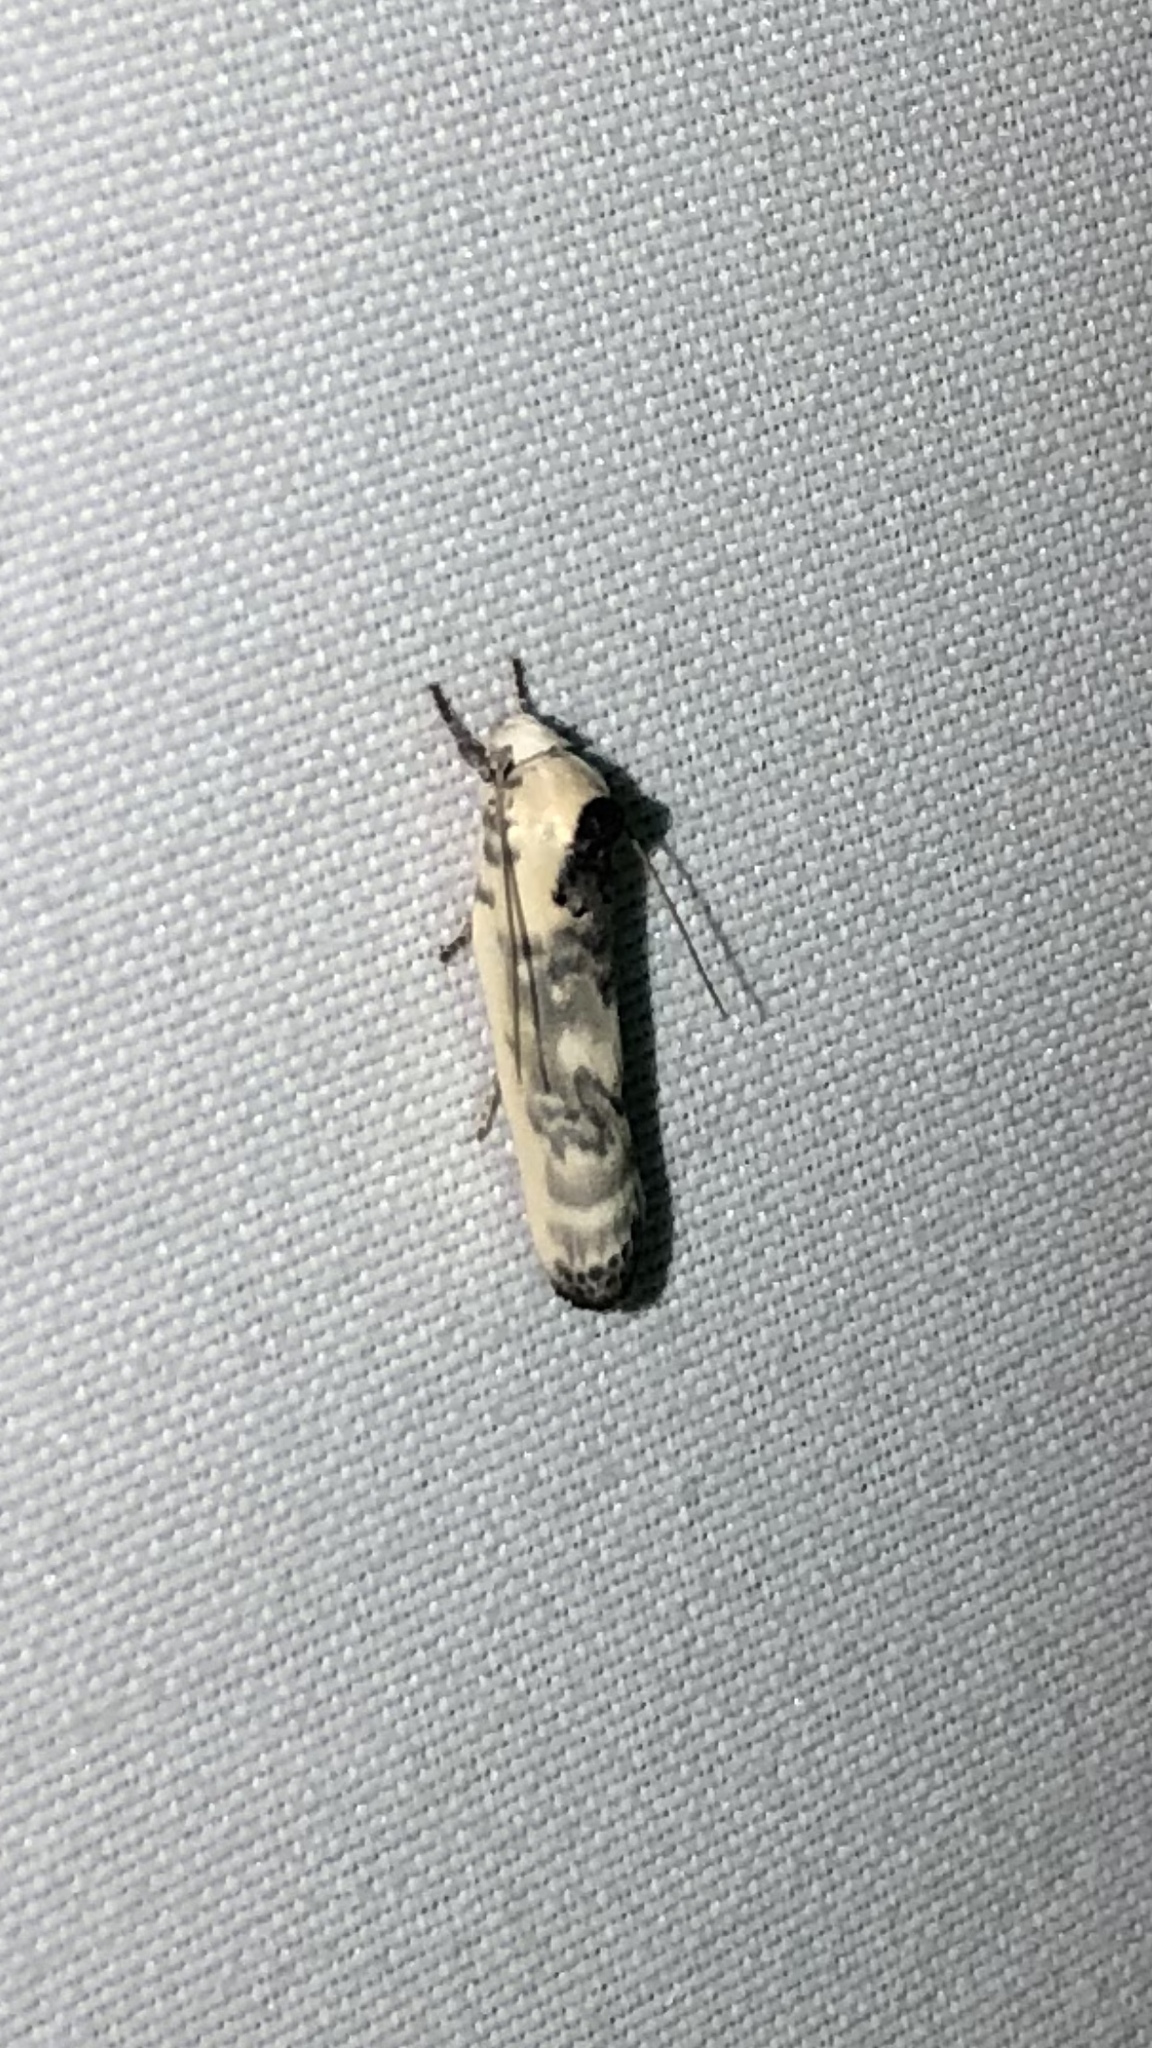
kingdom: Animalia
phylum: Arthropoda
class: Insecta
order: Lepidoptera
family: Depressariidae
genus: Antaeotricha
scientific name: Antaeotricha schlaegeri
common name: Schlaeger's fruitworm moth
